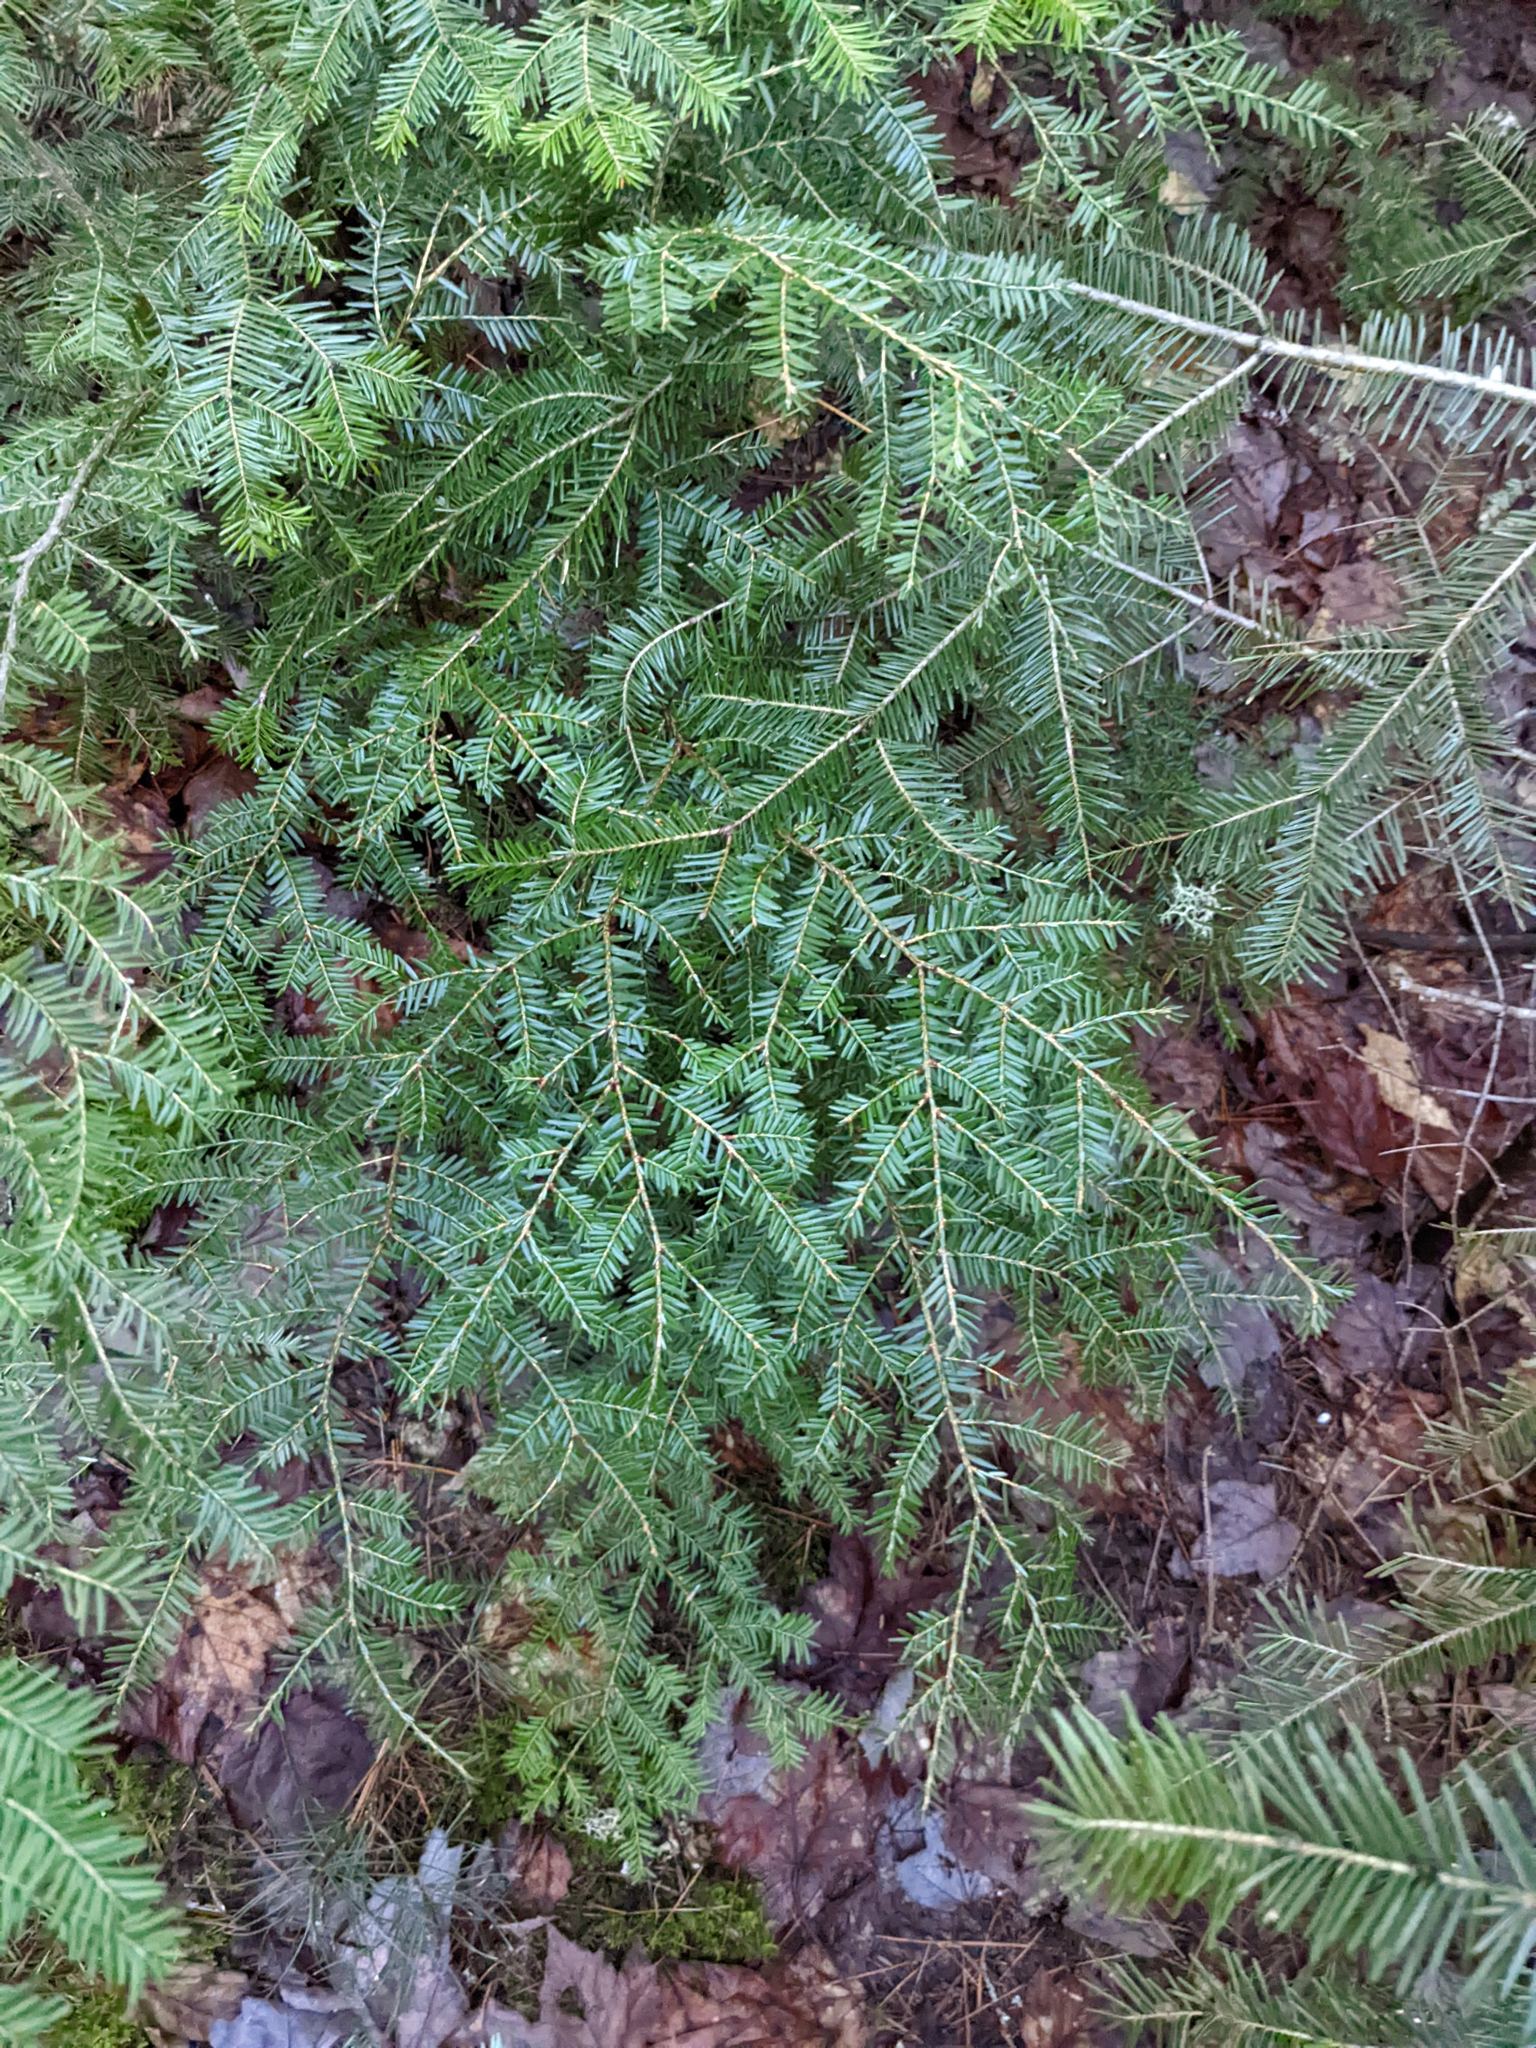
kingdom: Plantae
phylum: Tracheophyta
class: Pinopsida
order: Pinales
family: Pinaceae
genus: Tsuga
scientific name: Tsuga canadensis
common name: Eastern hemlock
